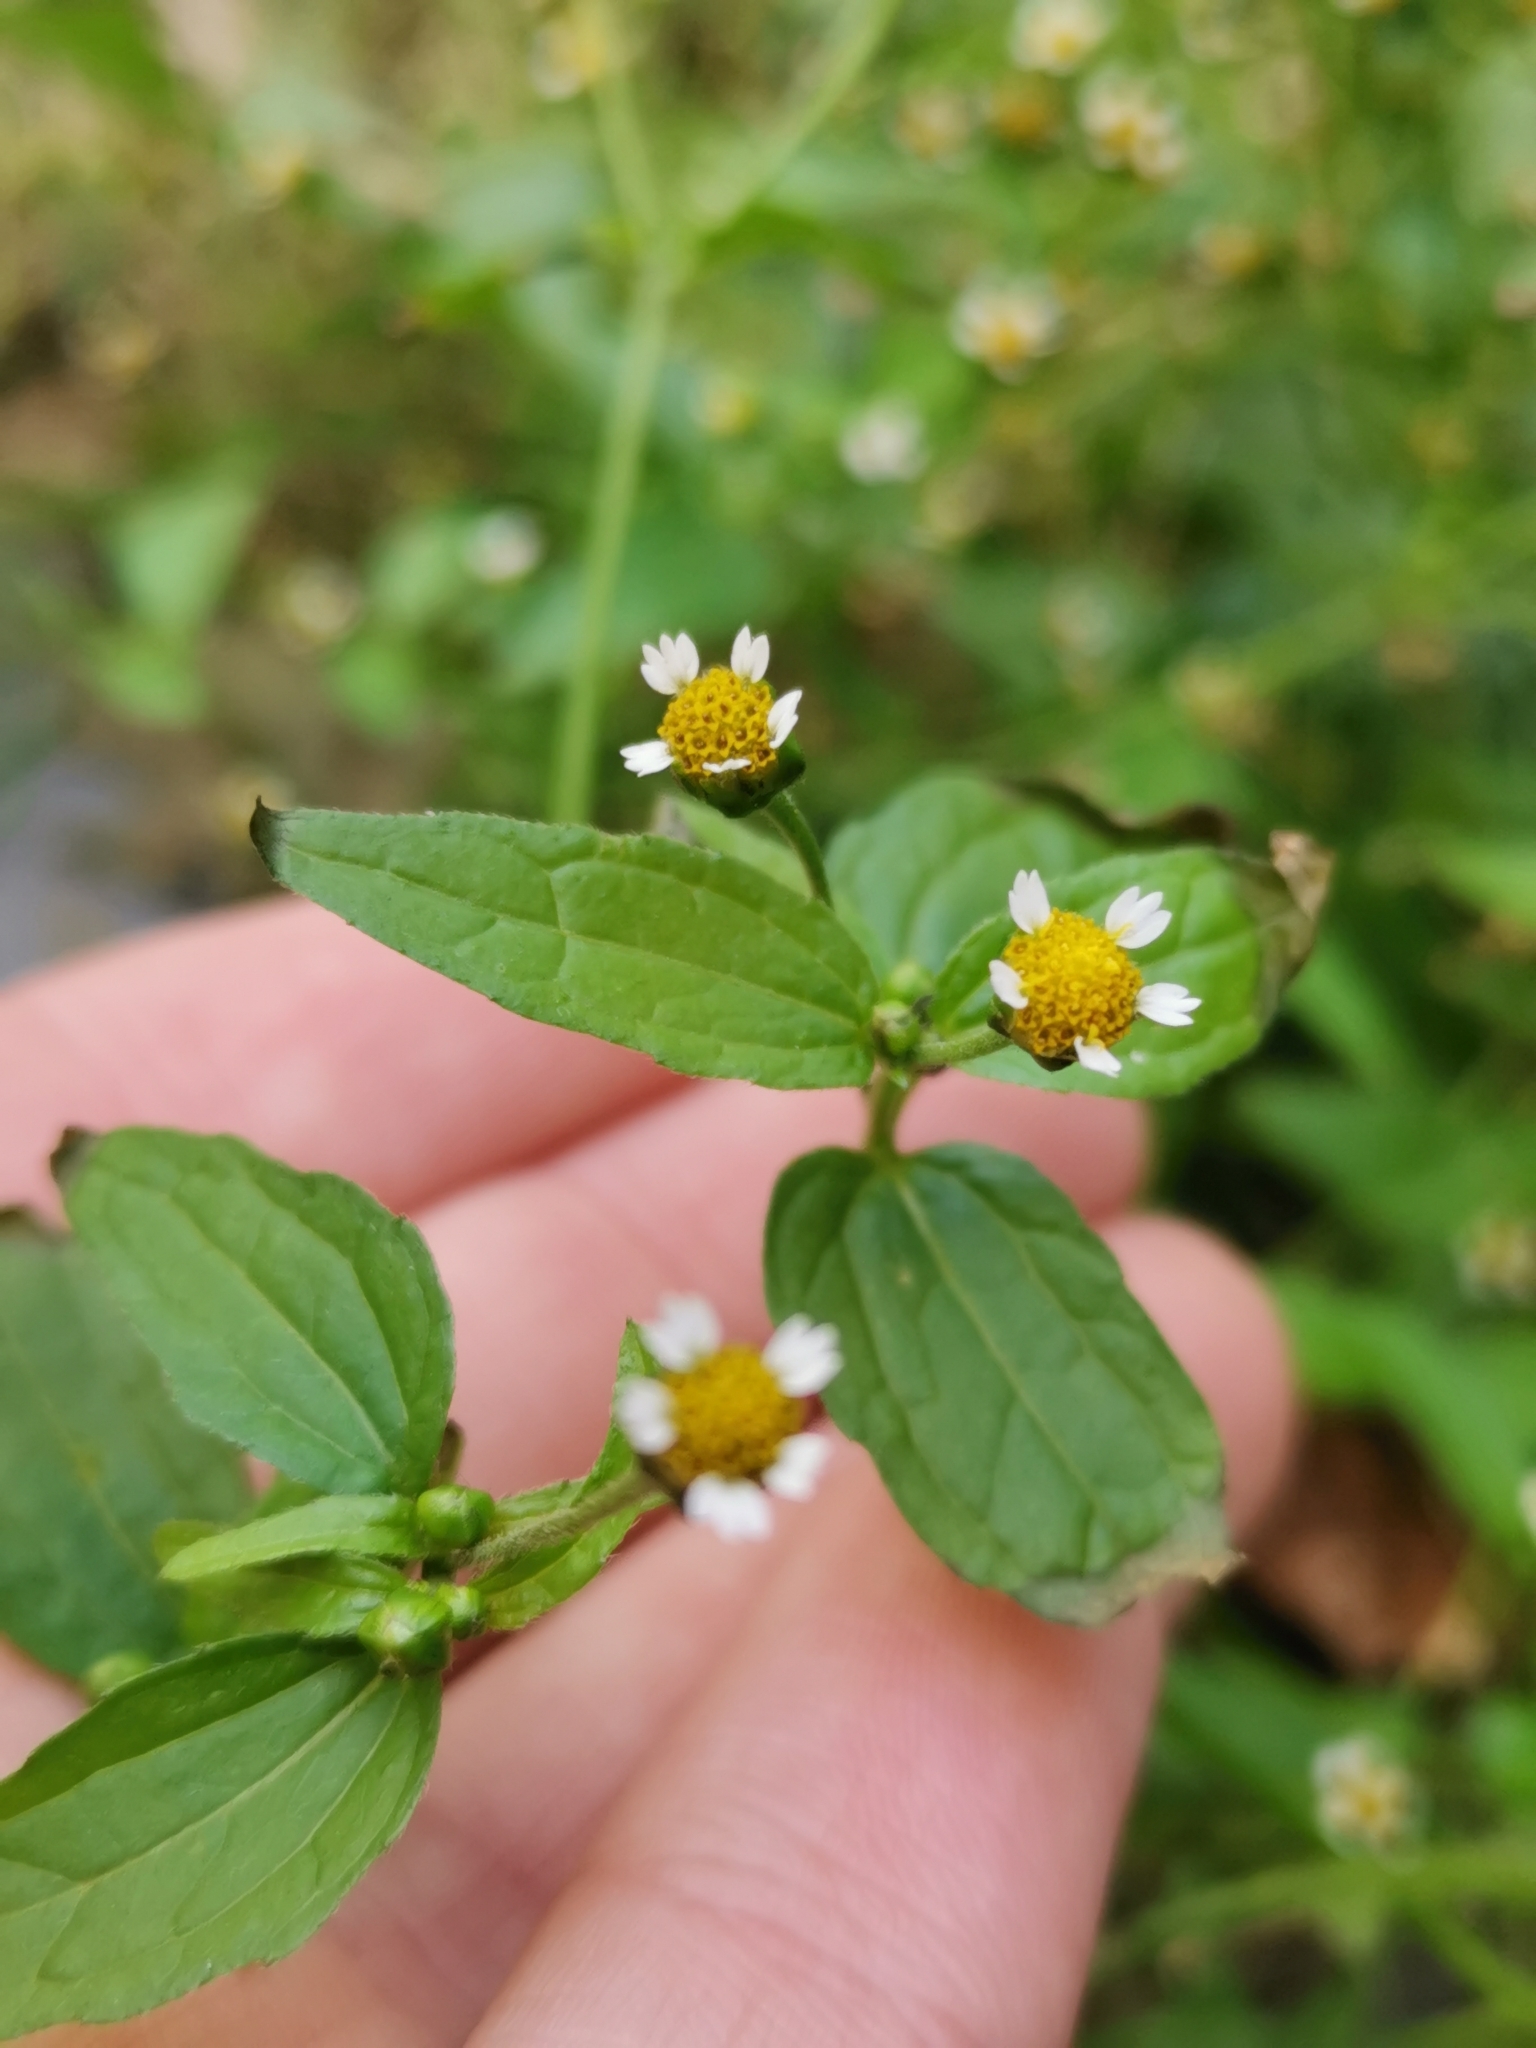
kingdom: Plantae
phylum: Tracheophyta
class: Magnoliopsida
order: Asterales
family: Asteraceae
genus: Galinsoga
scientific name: Galinsoga parviflora
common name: Gallant soldier
